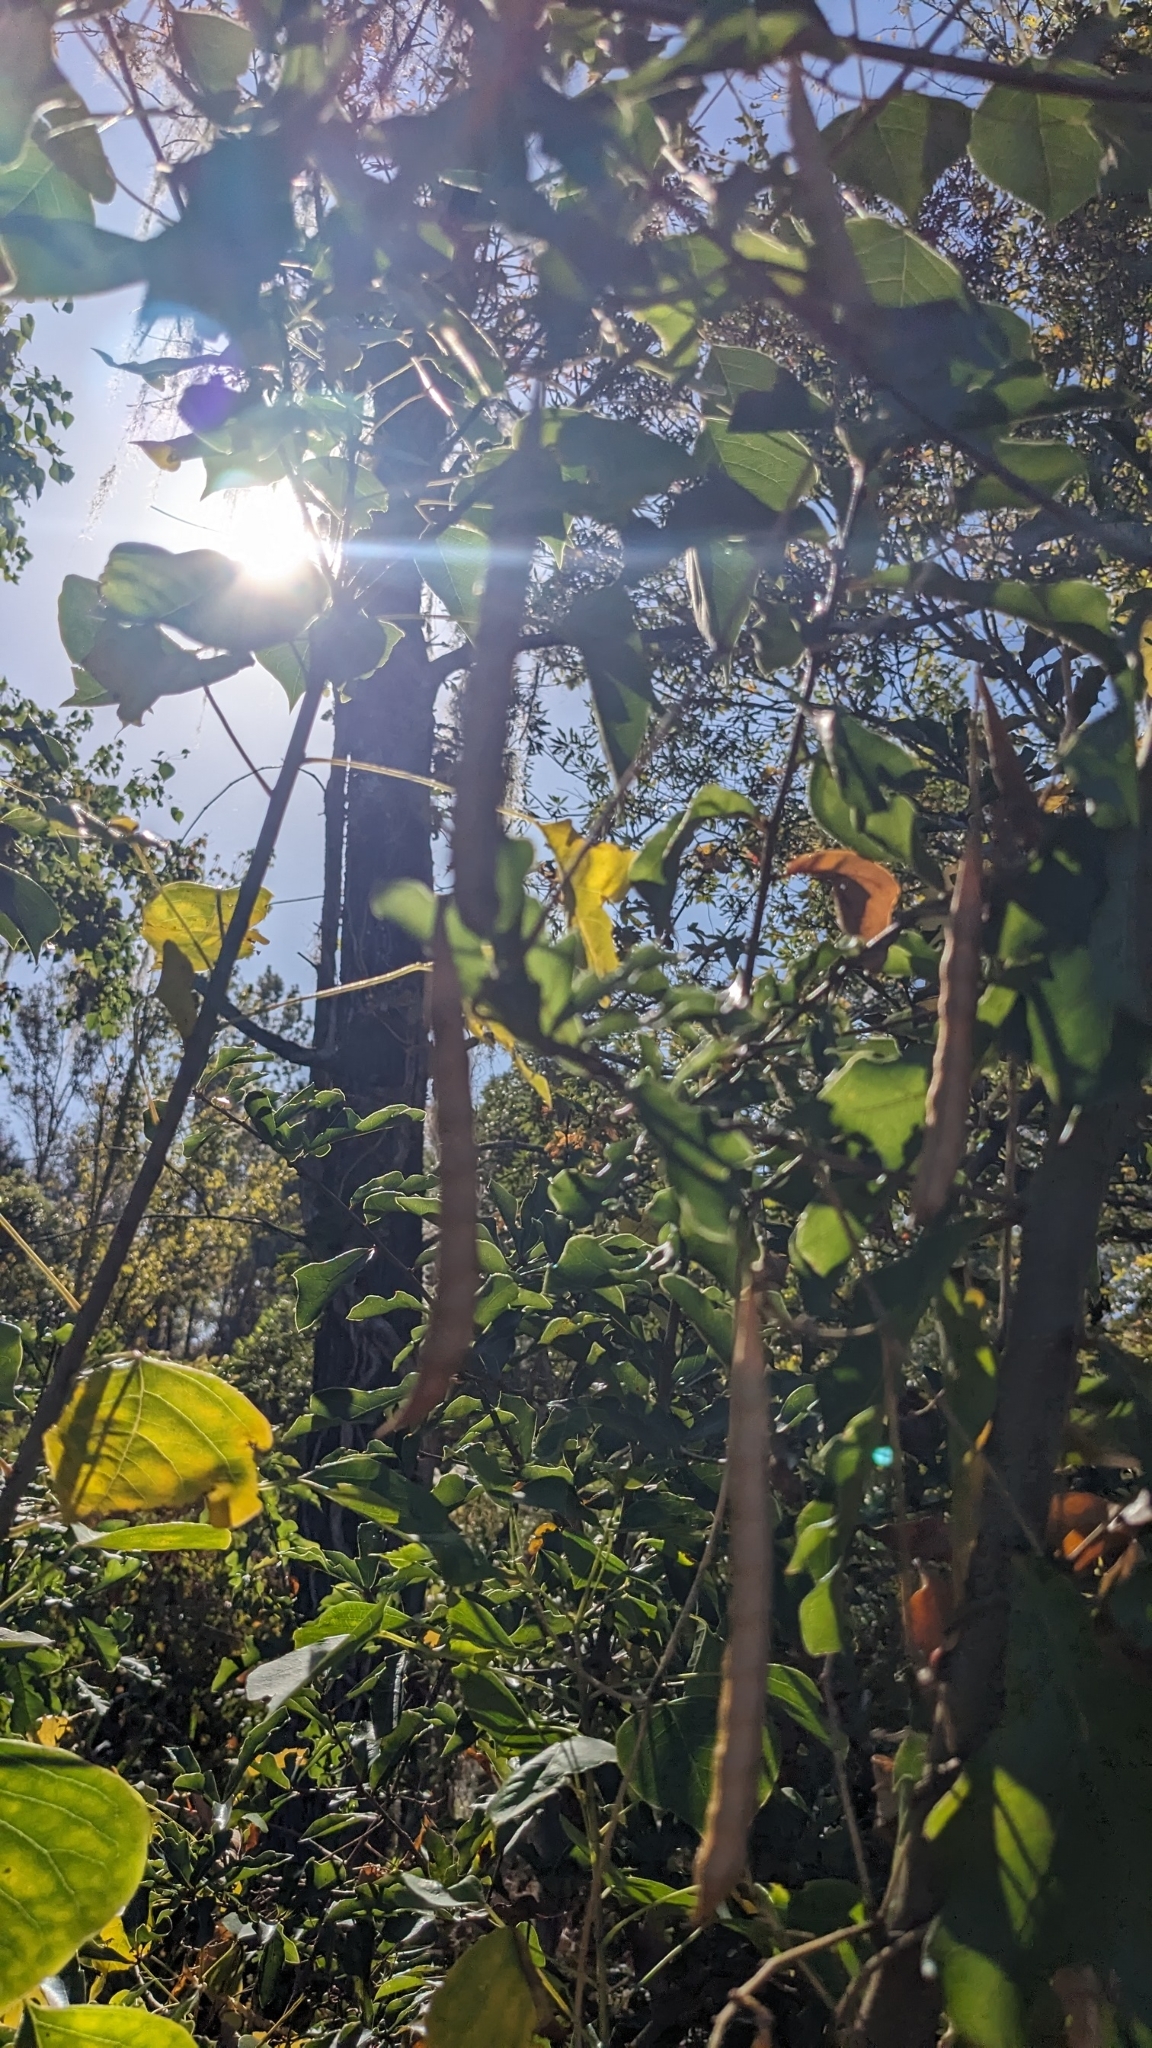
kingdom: Plantae
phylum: Tracheophyta
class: Magnoliopsida
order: Fabales
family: Fabaceae
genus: Apios
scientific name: Apios americana
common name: American potato-bean
